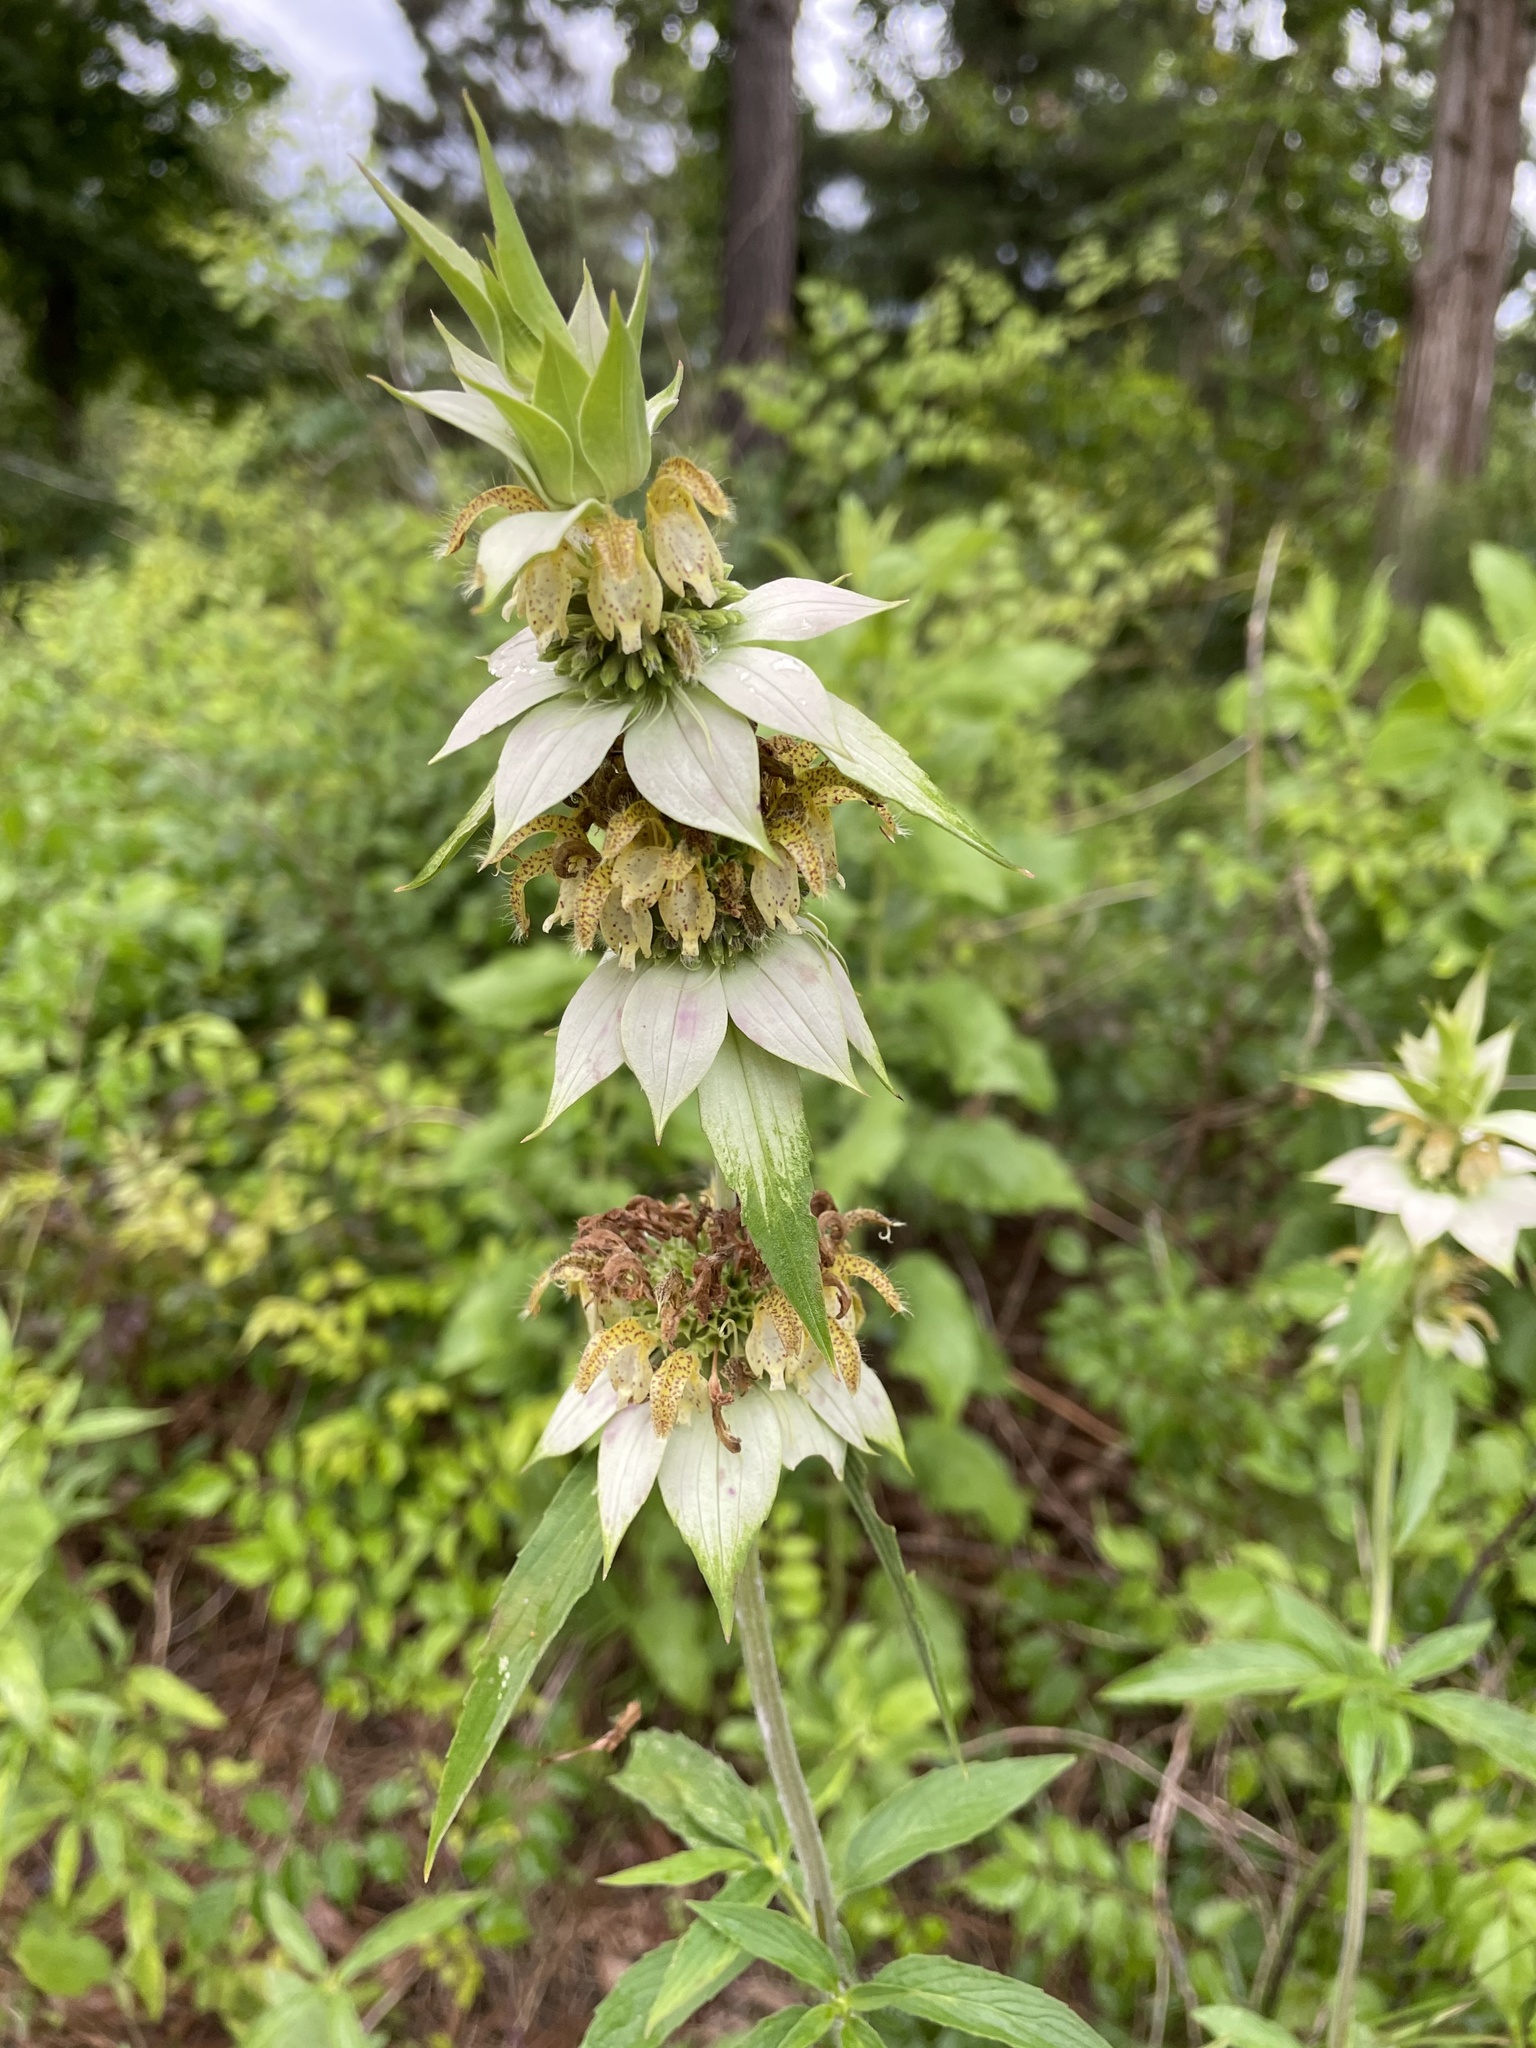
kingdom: Plantae
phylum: Tracheophyta
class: Magnoliopsida
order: Lamiales
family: Lamiaceae
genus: Monarda
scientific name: Monarda punctata
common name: Dotted monarda
